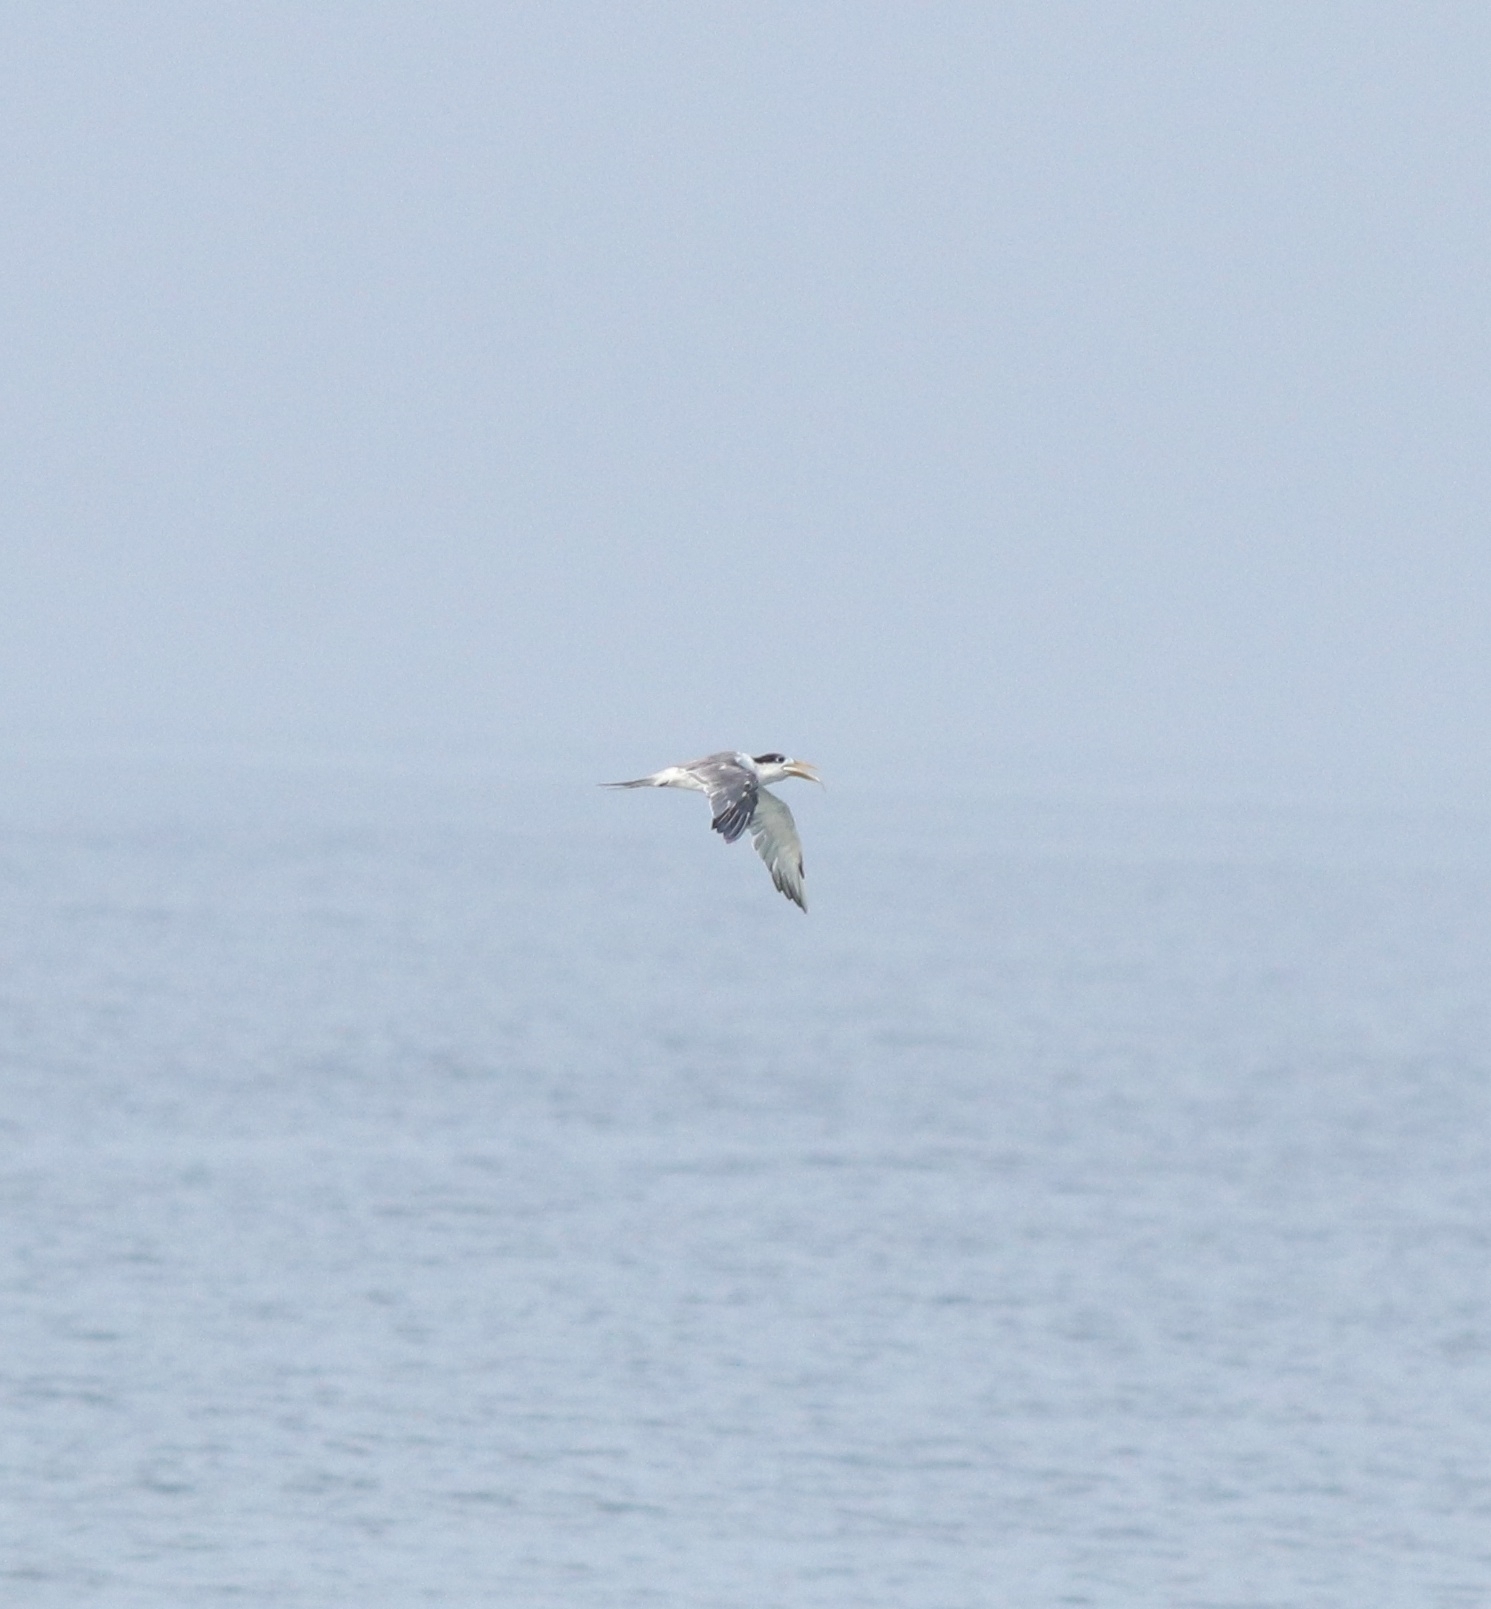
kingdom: Animalia
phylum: Chordata
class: Aves
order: Charadriiformes
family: Laridae
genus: Thalasseus
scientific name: Thalasseus bergii
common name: Greater crested tern
